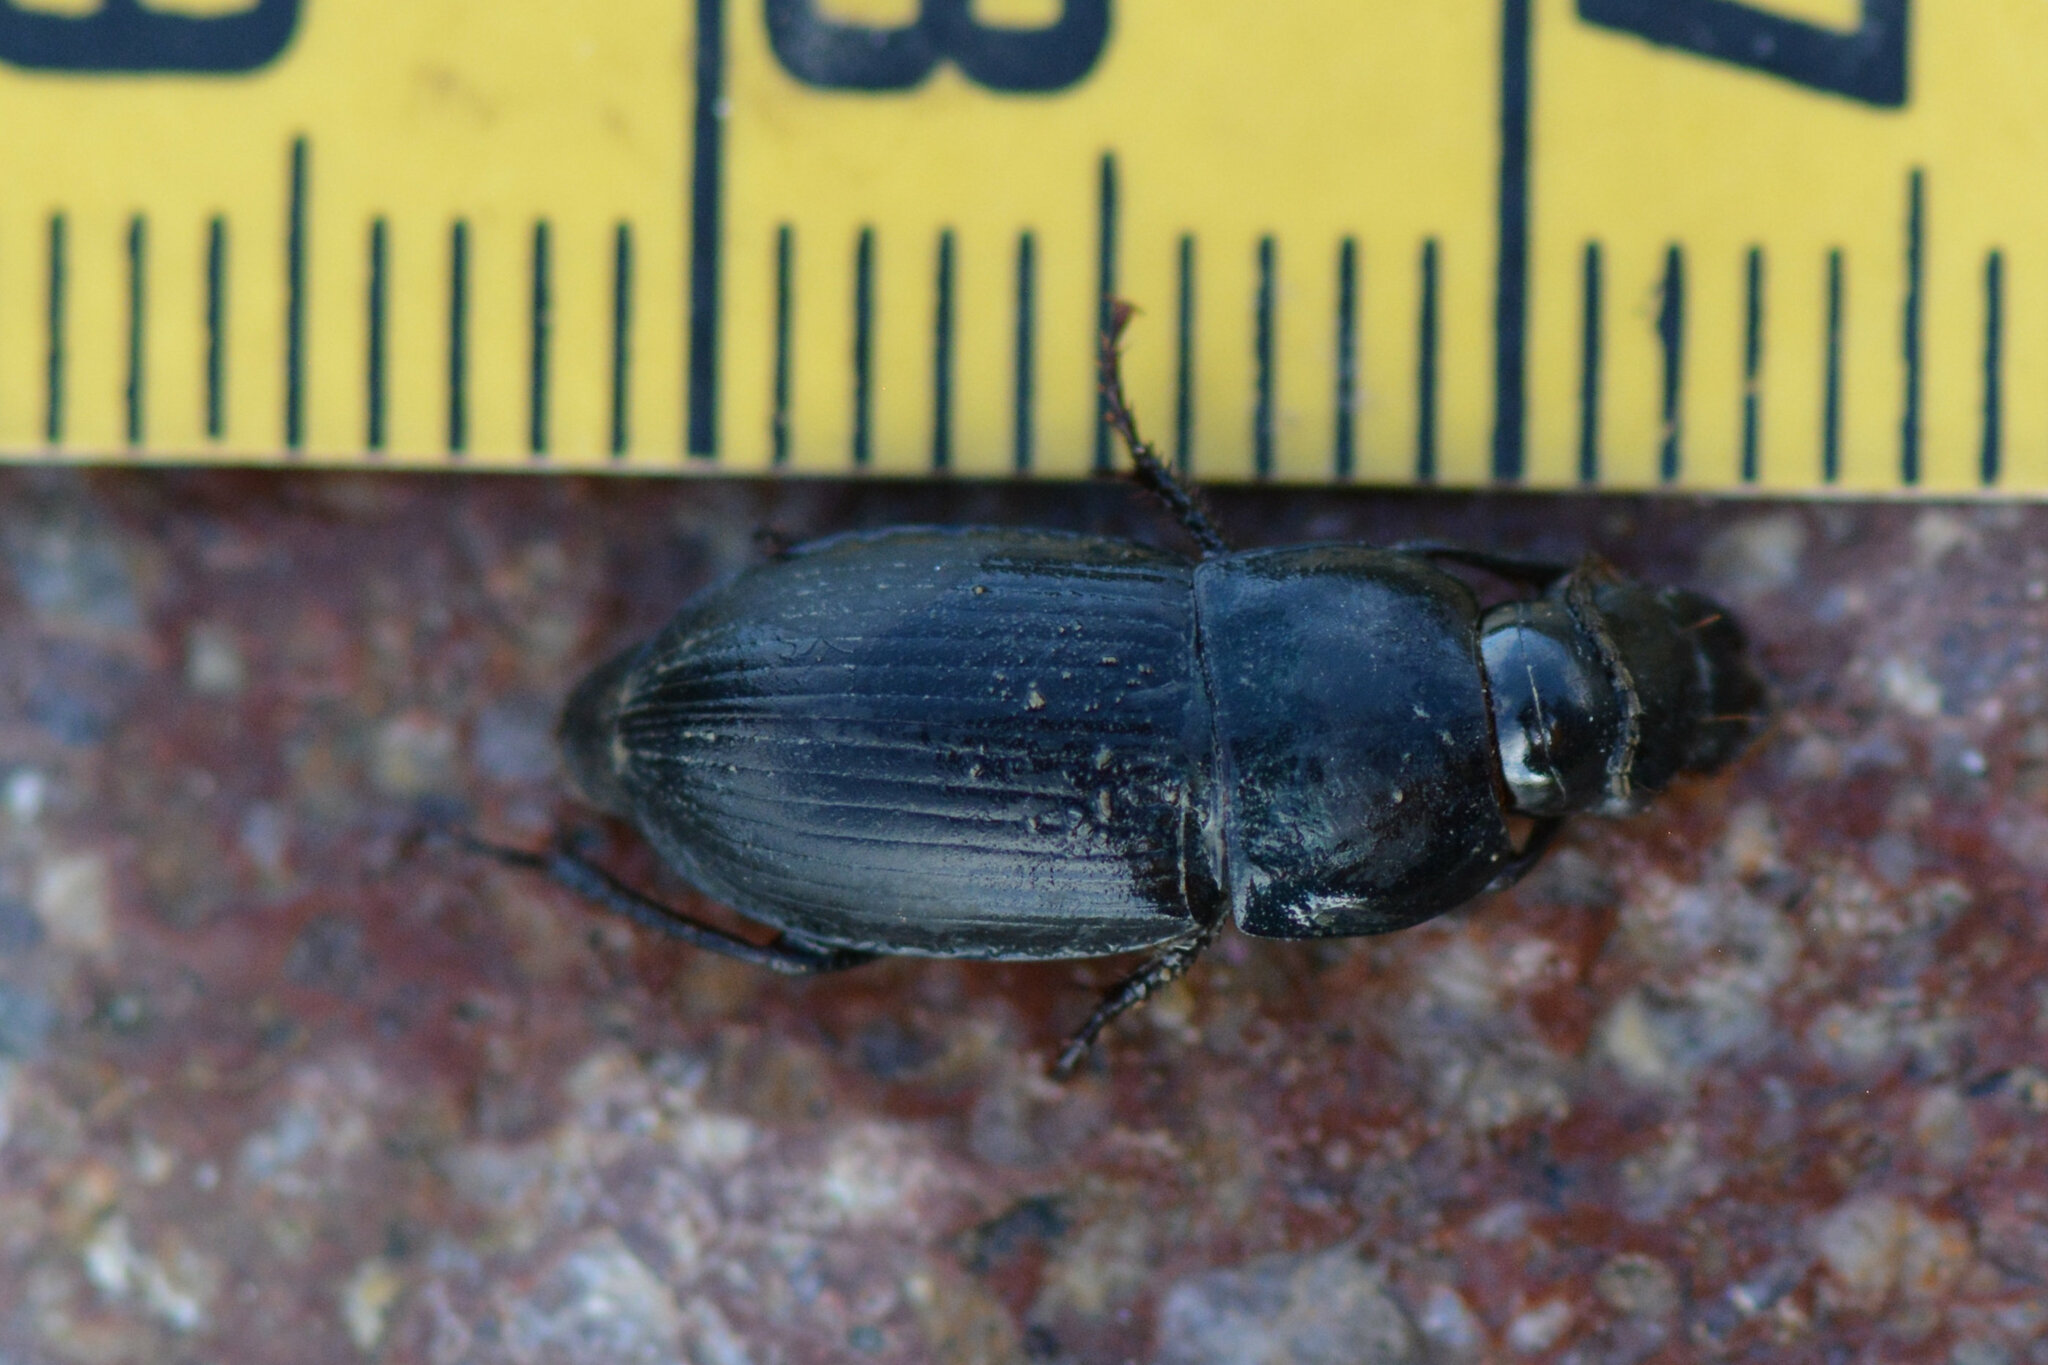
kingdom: Animalia
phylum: Arthropoda
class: Insecta
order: Coleoptera
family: Carabidae
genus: Harpalus
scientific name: Harpalus dimidiatus
